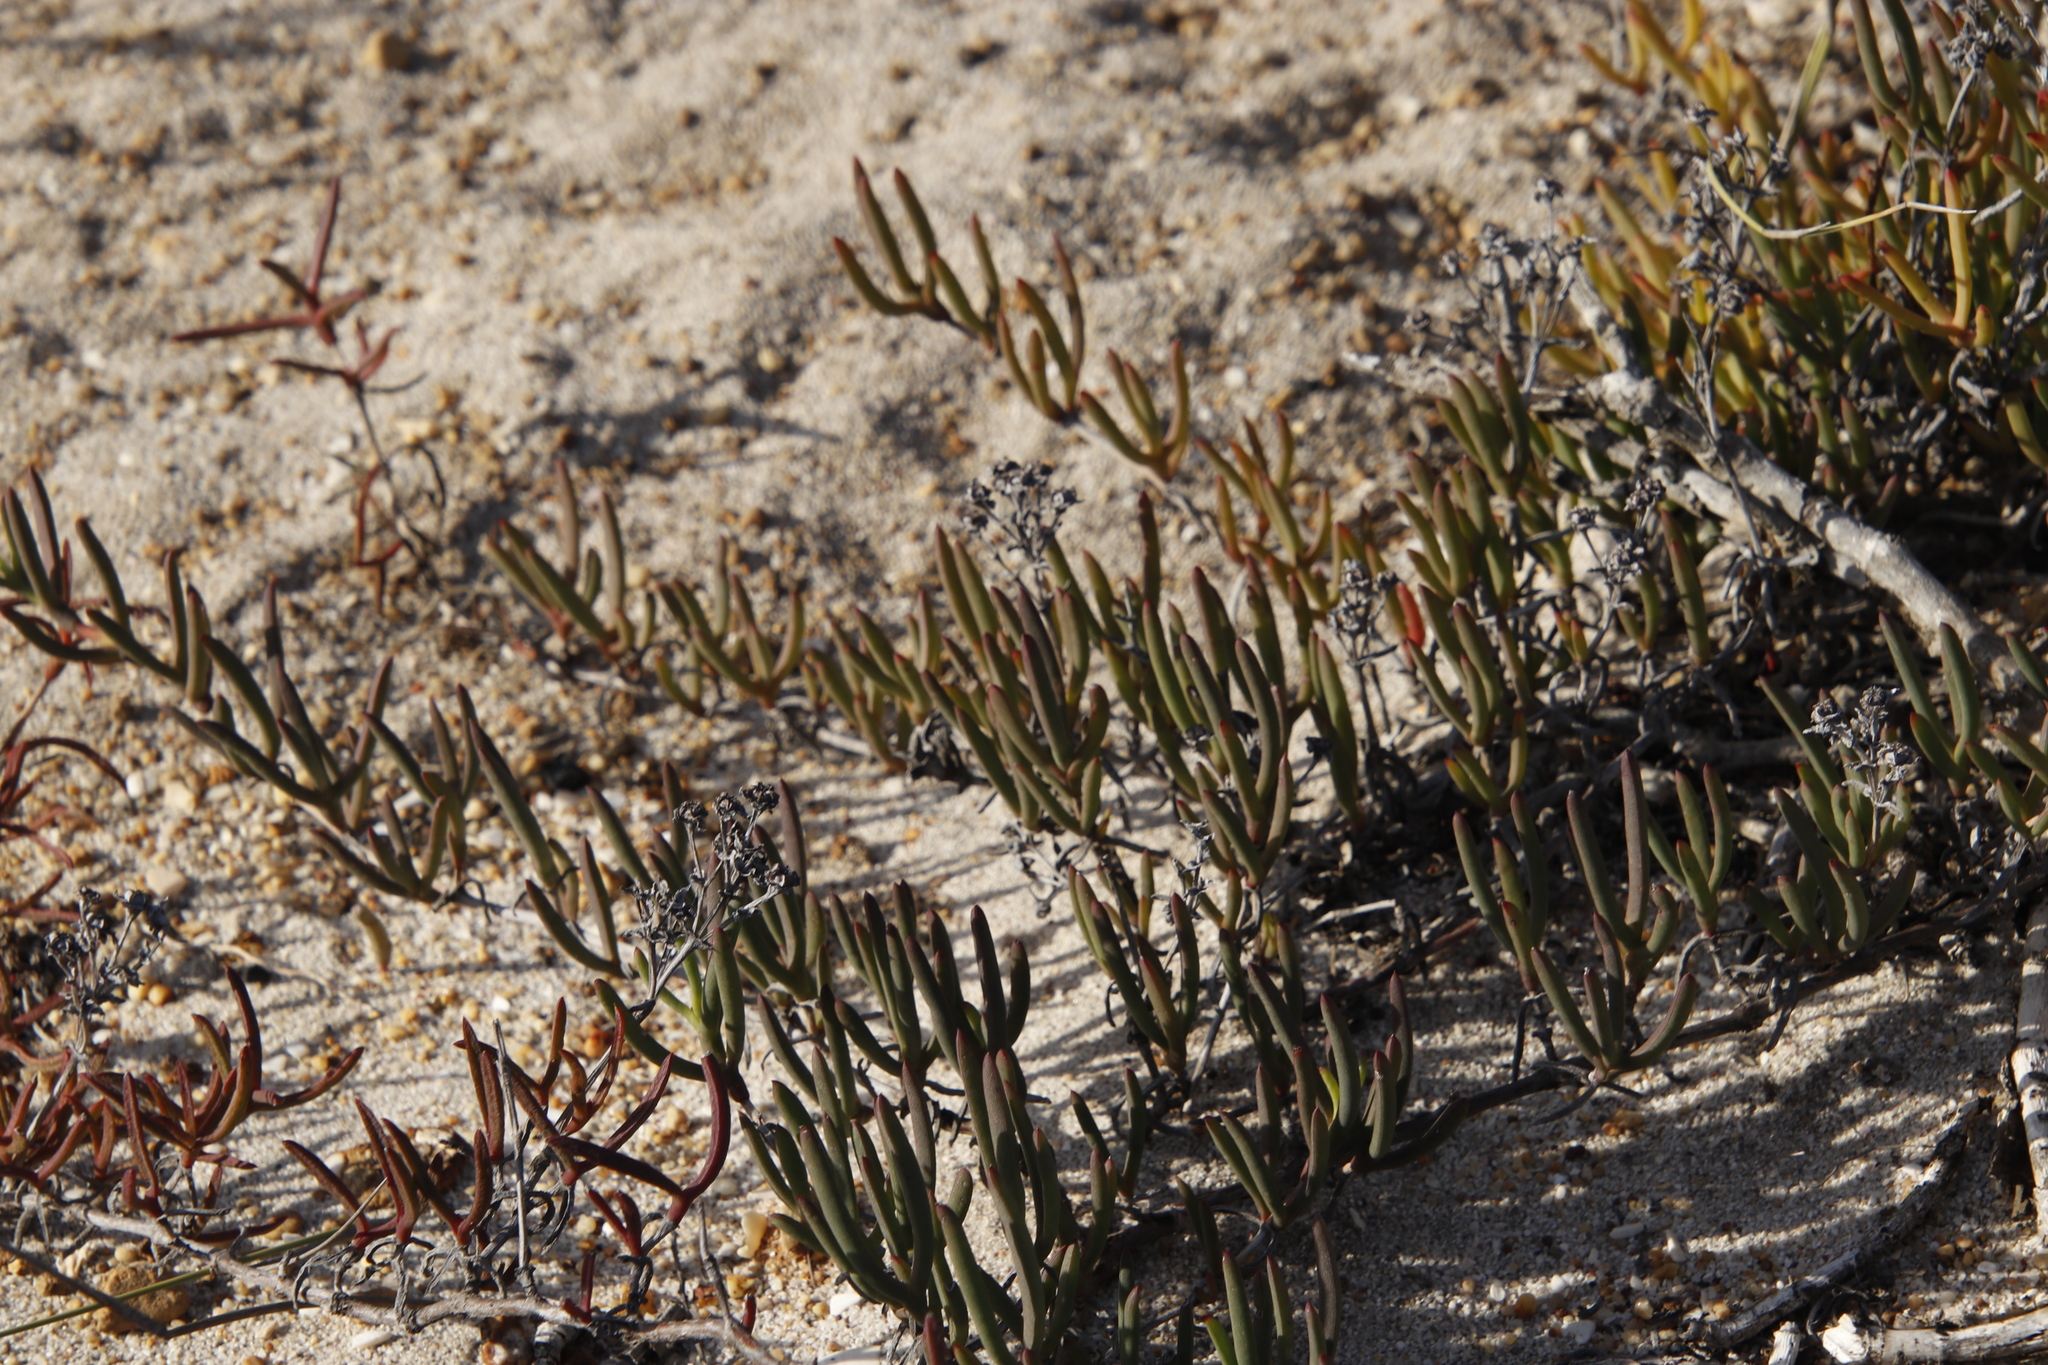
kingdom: Plantae
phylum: Tracheophyta
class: Magnoliopsida
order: Caryophyllales
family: Aizoaceae
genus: Ruschia
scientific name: Ruschia macowanii
